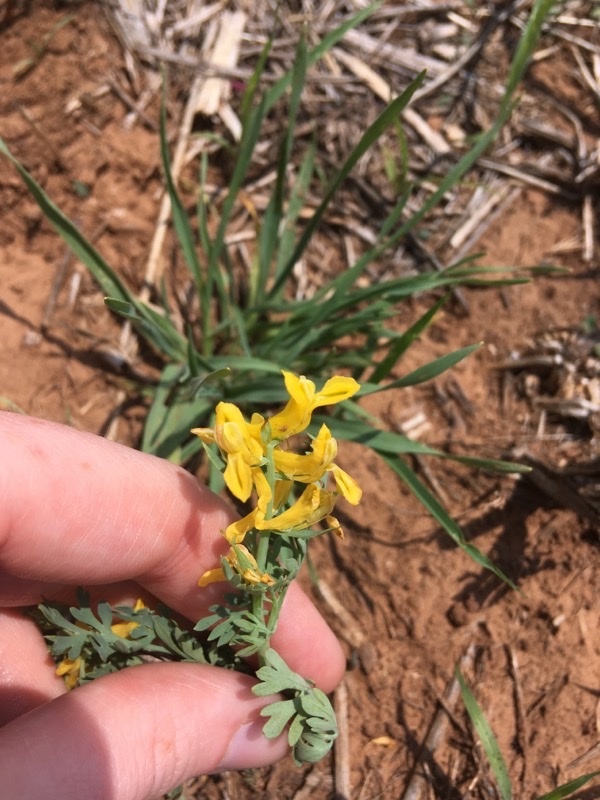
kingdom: Plantae
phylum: Tracheophyta
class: Magnoliopsida
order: Ranunculales
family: Papaveraceae
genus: Corydalis
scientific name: Corydalis aurea
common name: Golden corydalis
